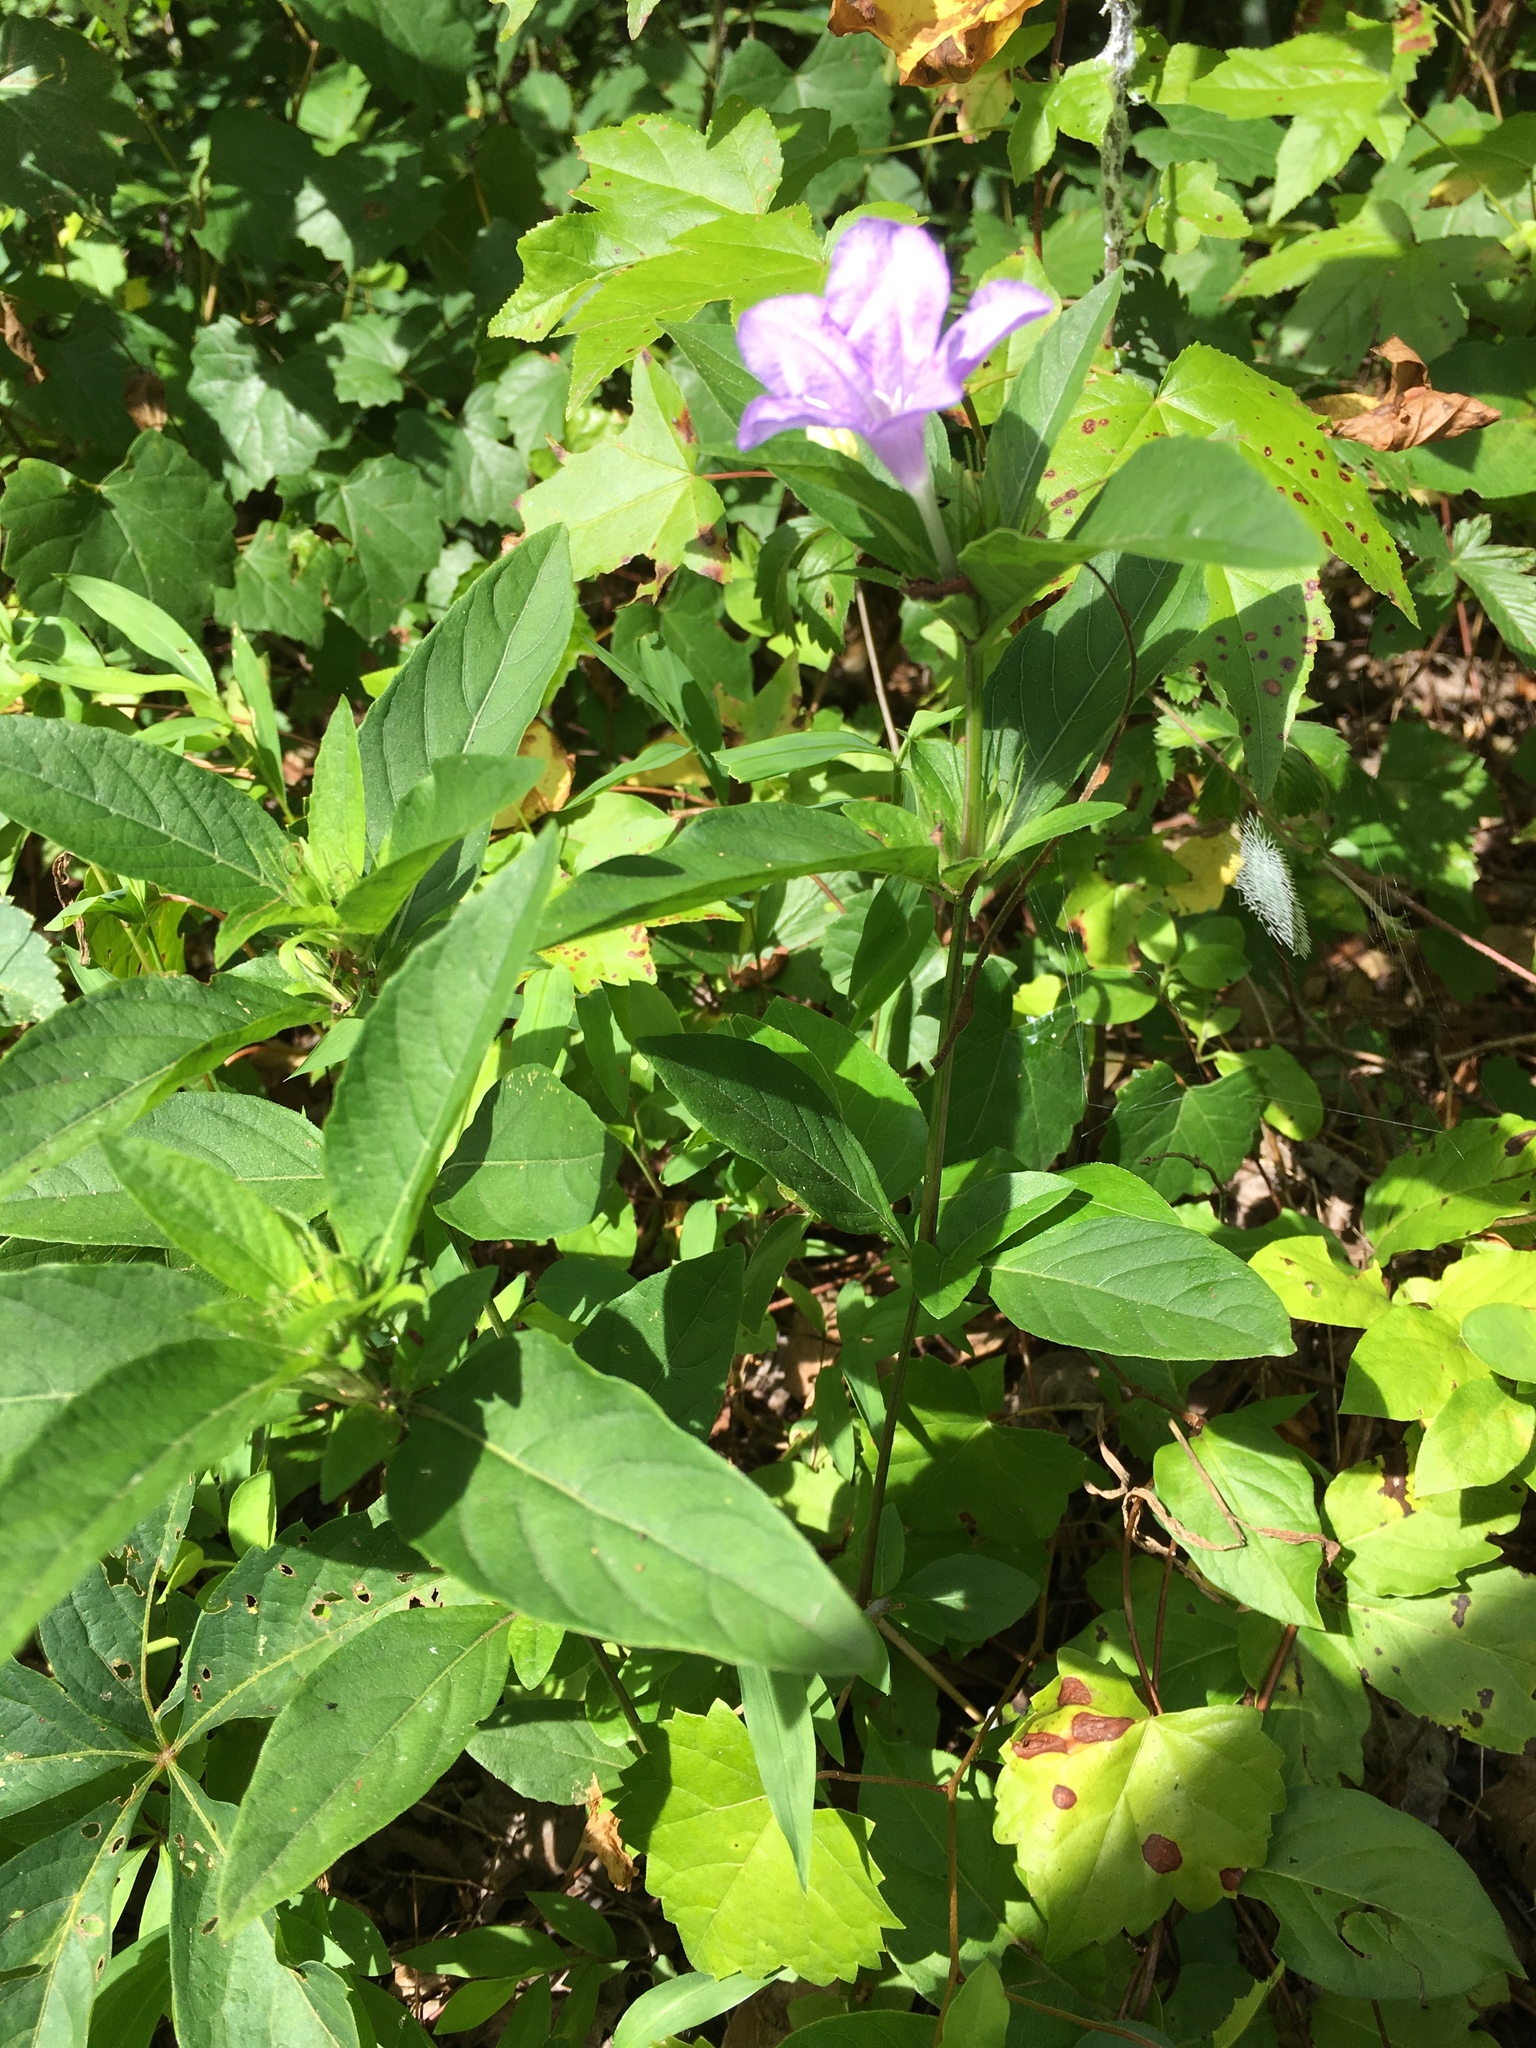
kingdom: Plantae
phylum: Tracheophyta
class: Magnoliopsida
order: Lamiales
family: Acanthaceae
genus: Ruellia
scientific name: Ruellia caroliniensis
